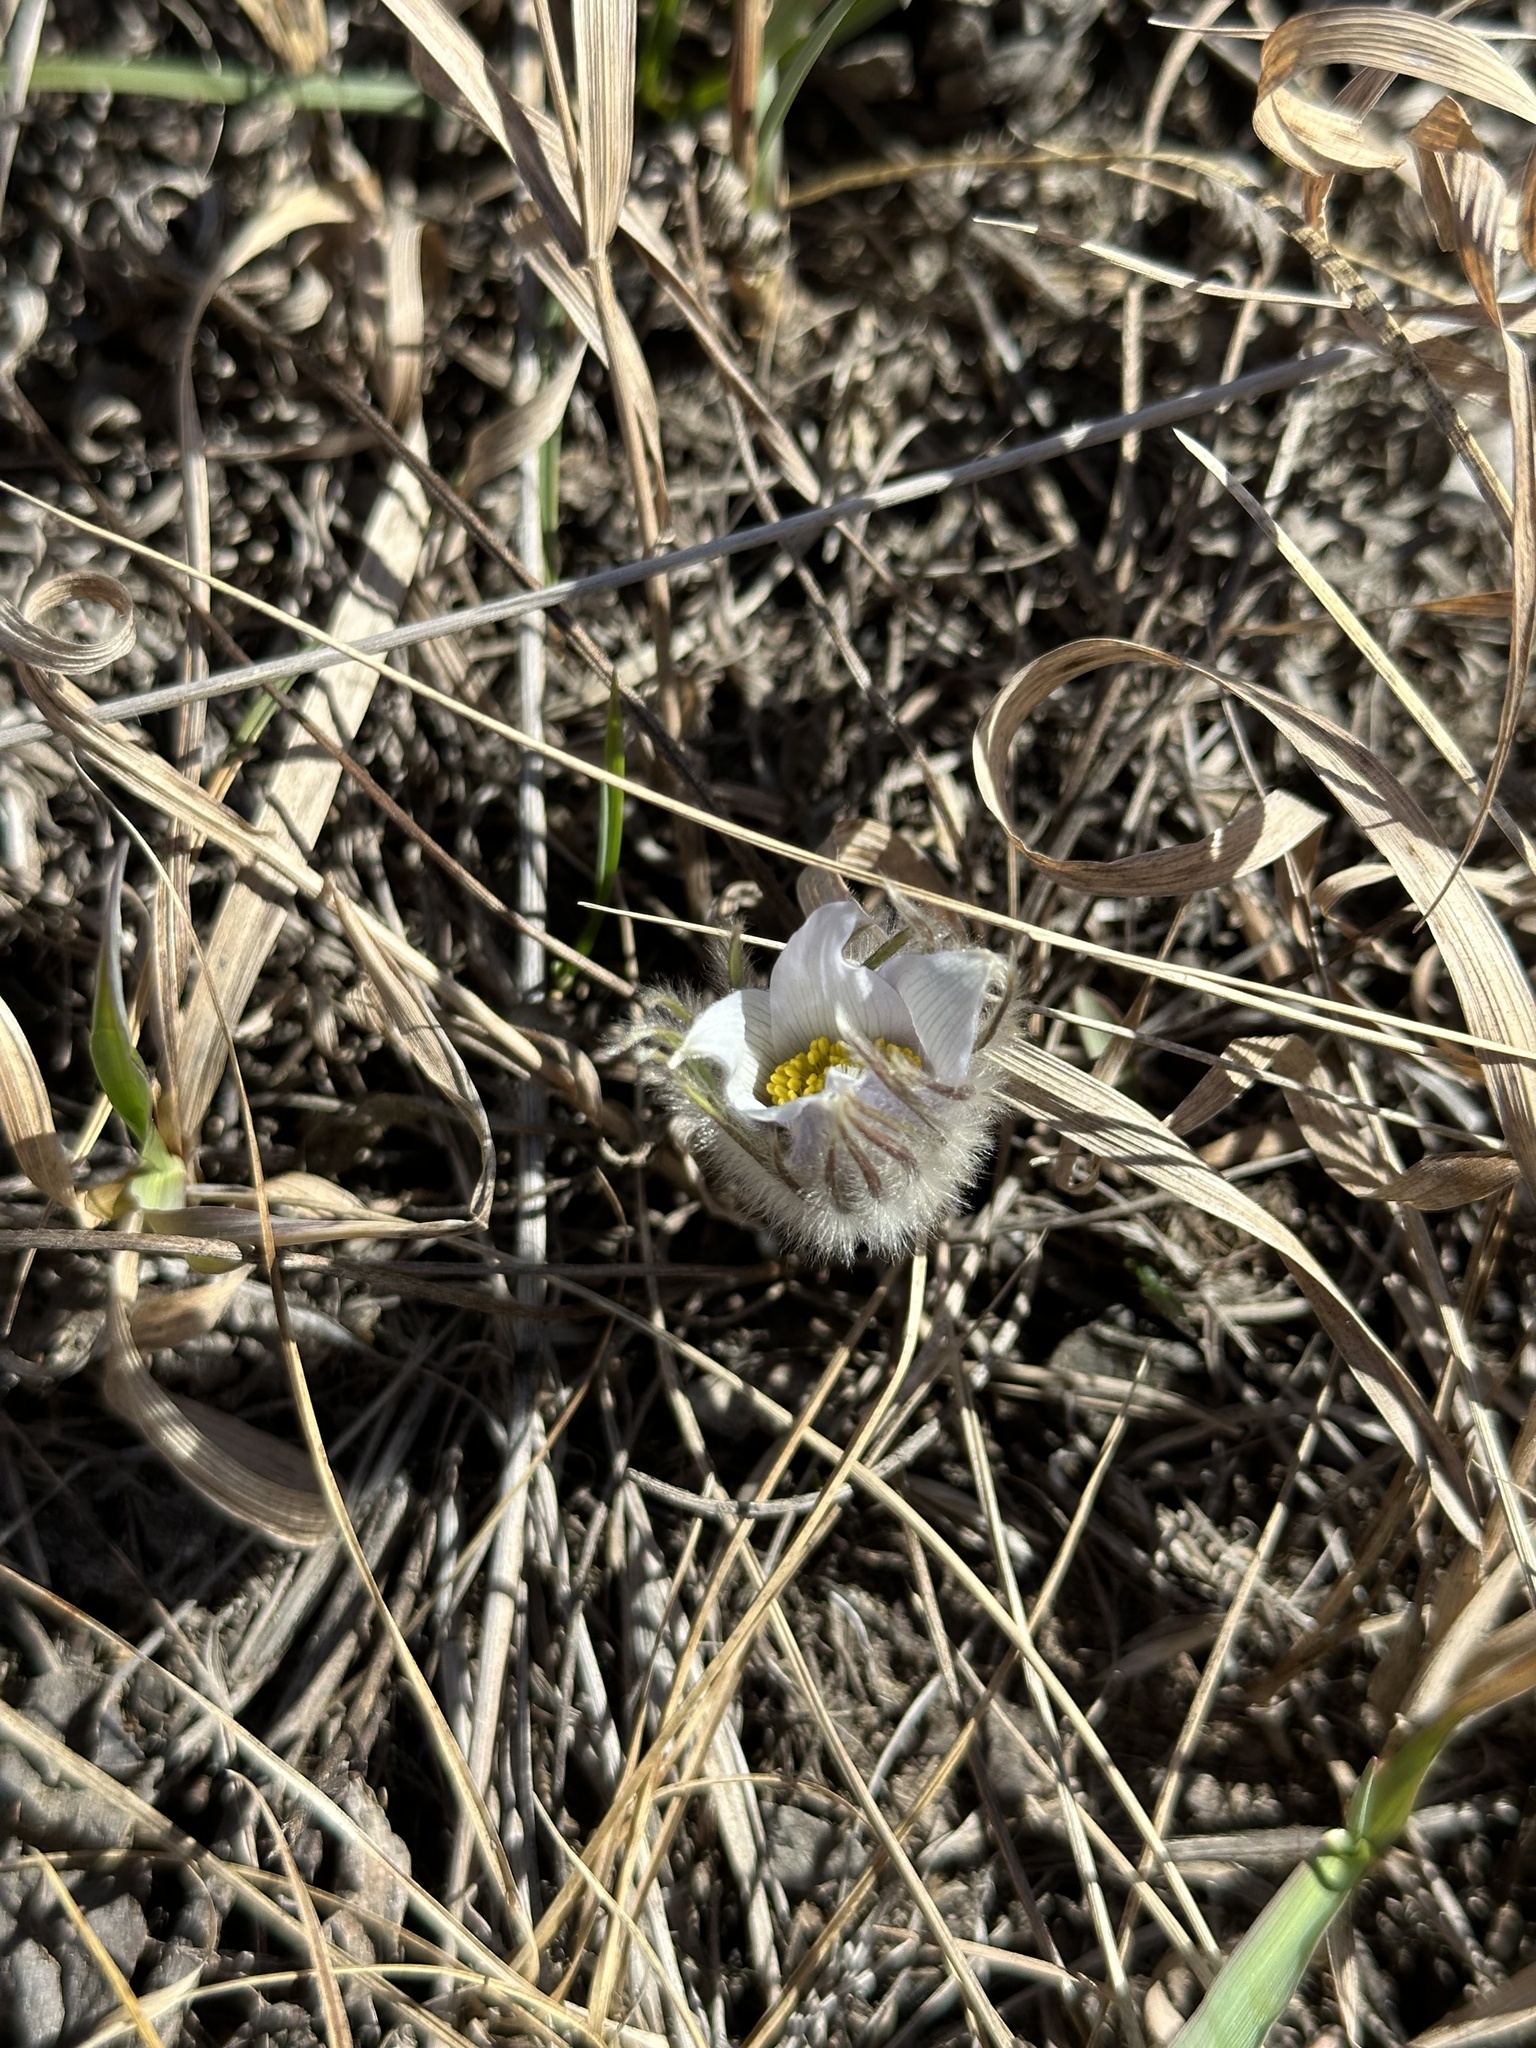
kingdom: Plantae
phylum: Tracheophyta
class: Magnoliopsida
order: Ranunculales
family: Ranunculaceae
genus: Pulsatilla
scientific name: Pulsatilla nuttalliana
